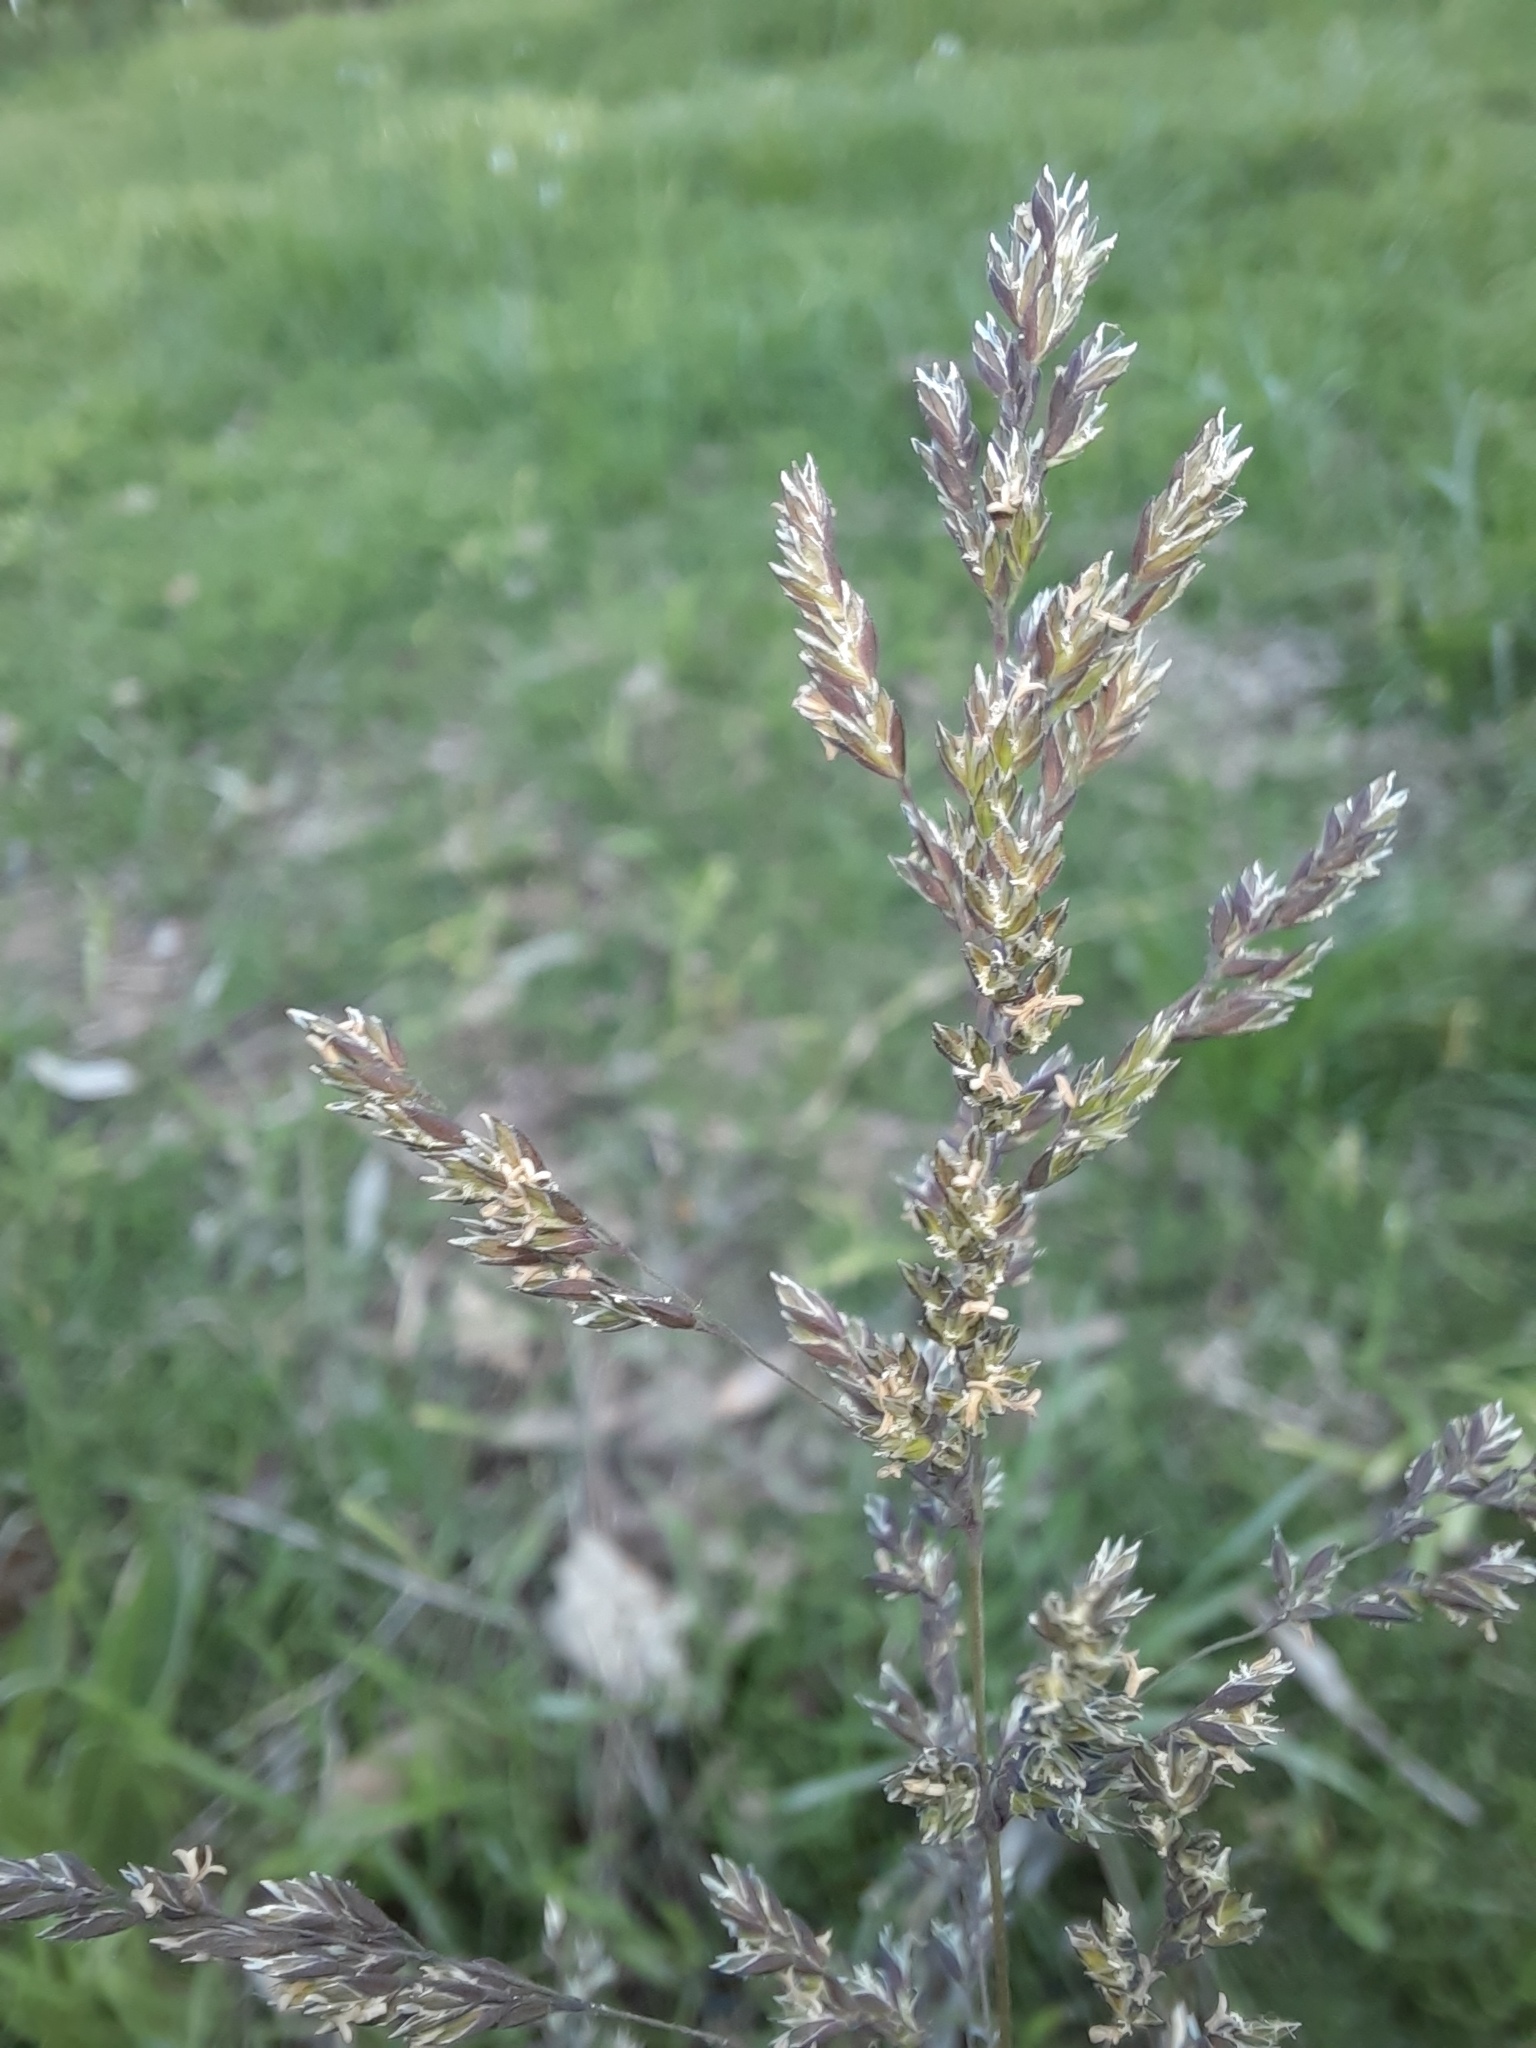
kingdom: Plantae
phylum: Tracheophyta
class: Liliopsida
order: Poales
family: Poaceae
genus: Holcus
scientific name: Holcus lanatus
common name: Yorkshire-fog
